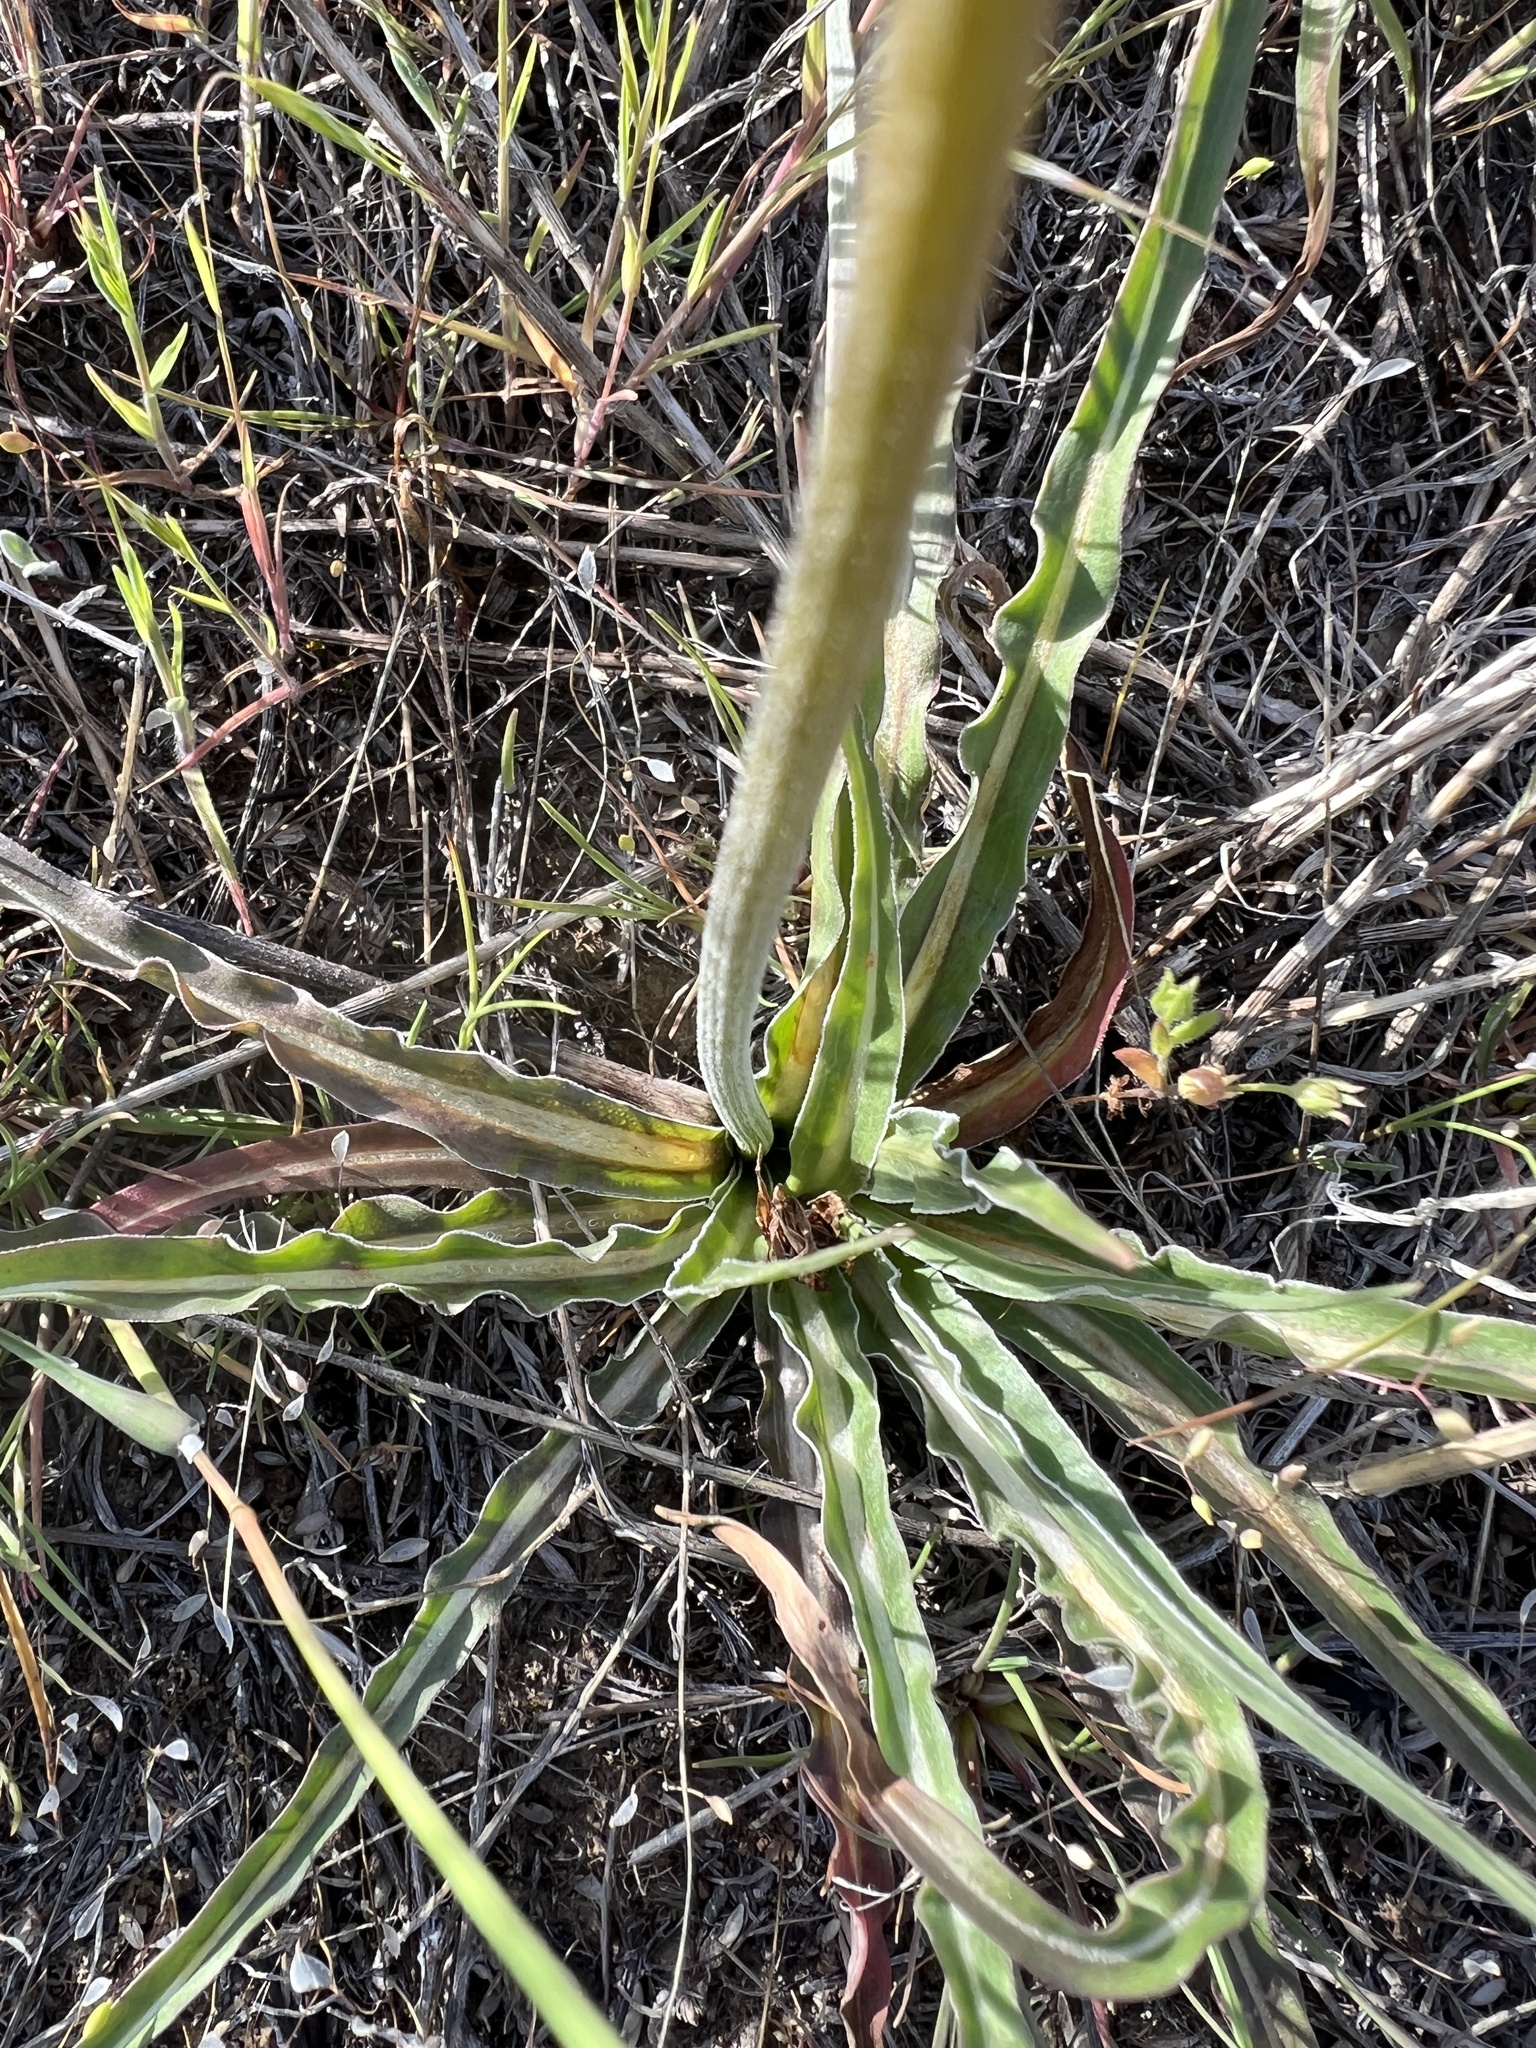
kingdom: Plantae
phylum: Tracheophyta
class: Magnoliopsida
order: Asterales
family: Asteraceae
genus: Microseris
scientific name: Microseris troximoides
